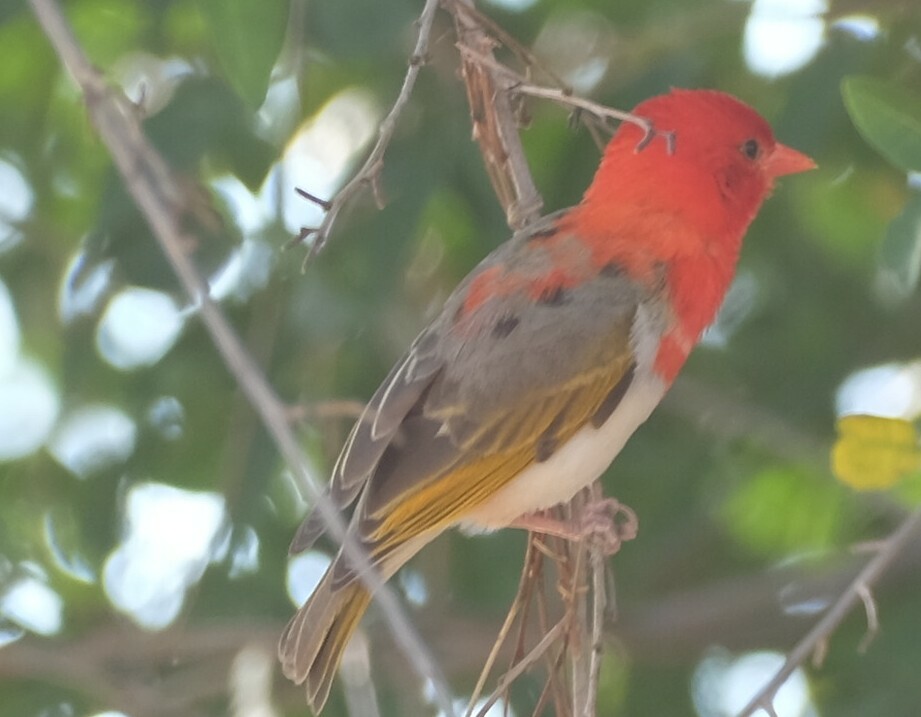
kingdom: Animalia
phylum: Chordata
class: Aves
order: Passeriformes
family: Ploceidae
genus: Anaplectes
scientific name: Anaplectes rubriceps
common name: Red-headed weaver
